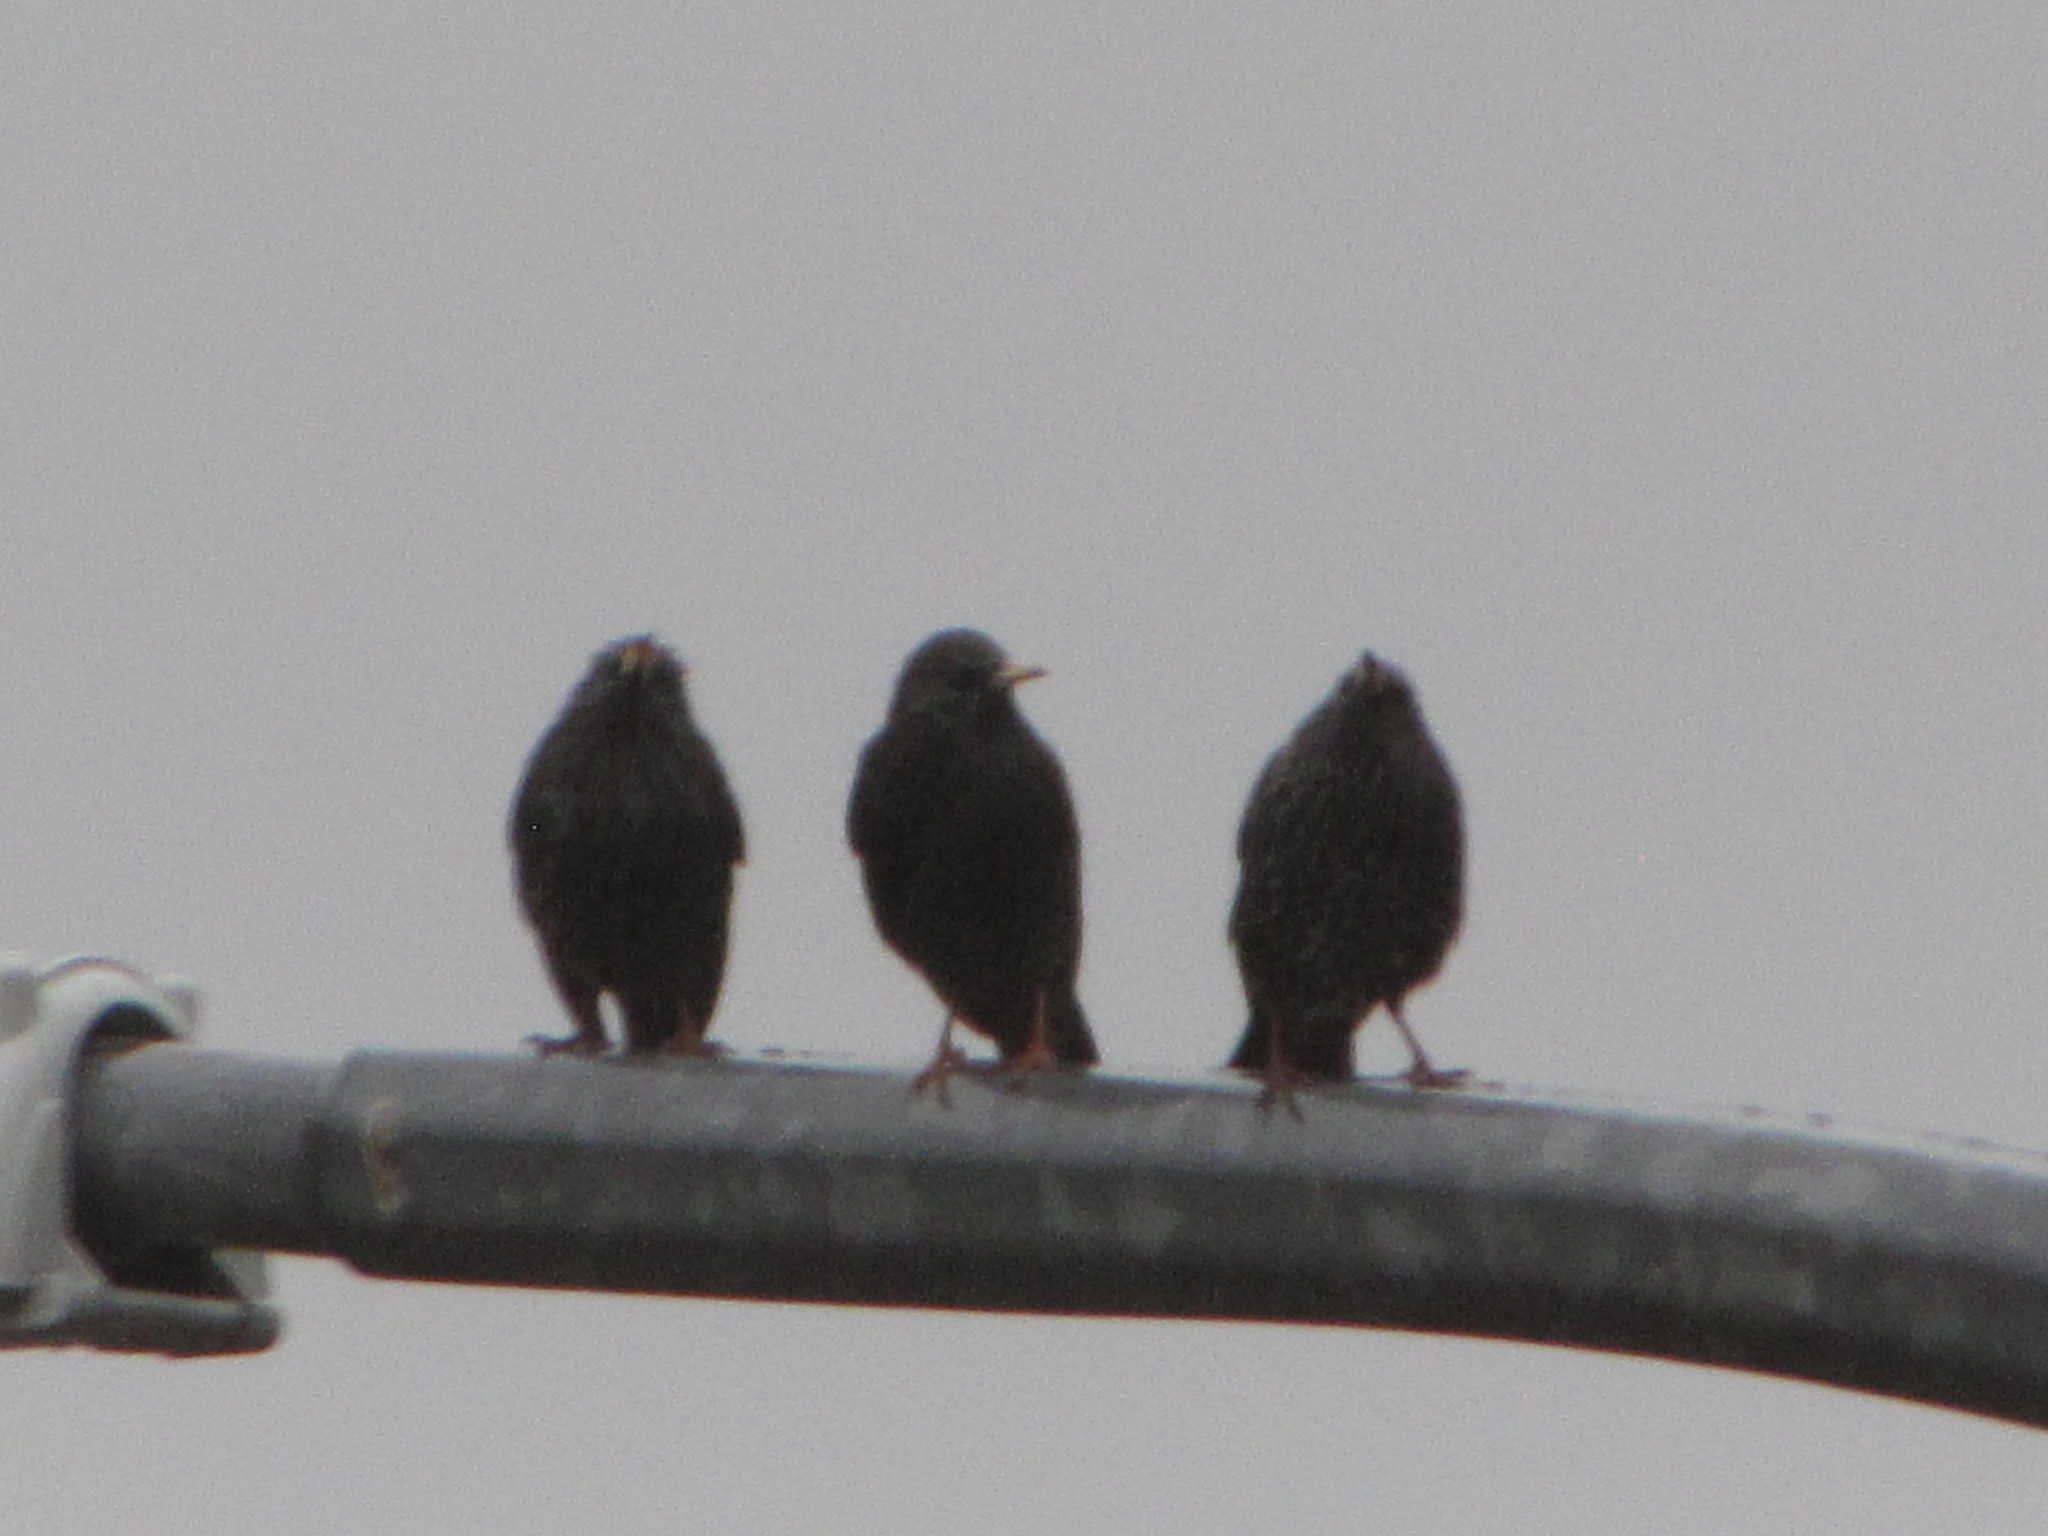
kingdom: Animalia
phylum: Chordata
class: Aves
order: Passeriformes
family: Sturnidae
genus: Sturnus
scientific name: Sturnus vulgaris
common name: Common starling
